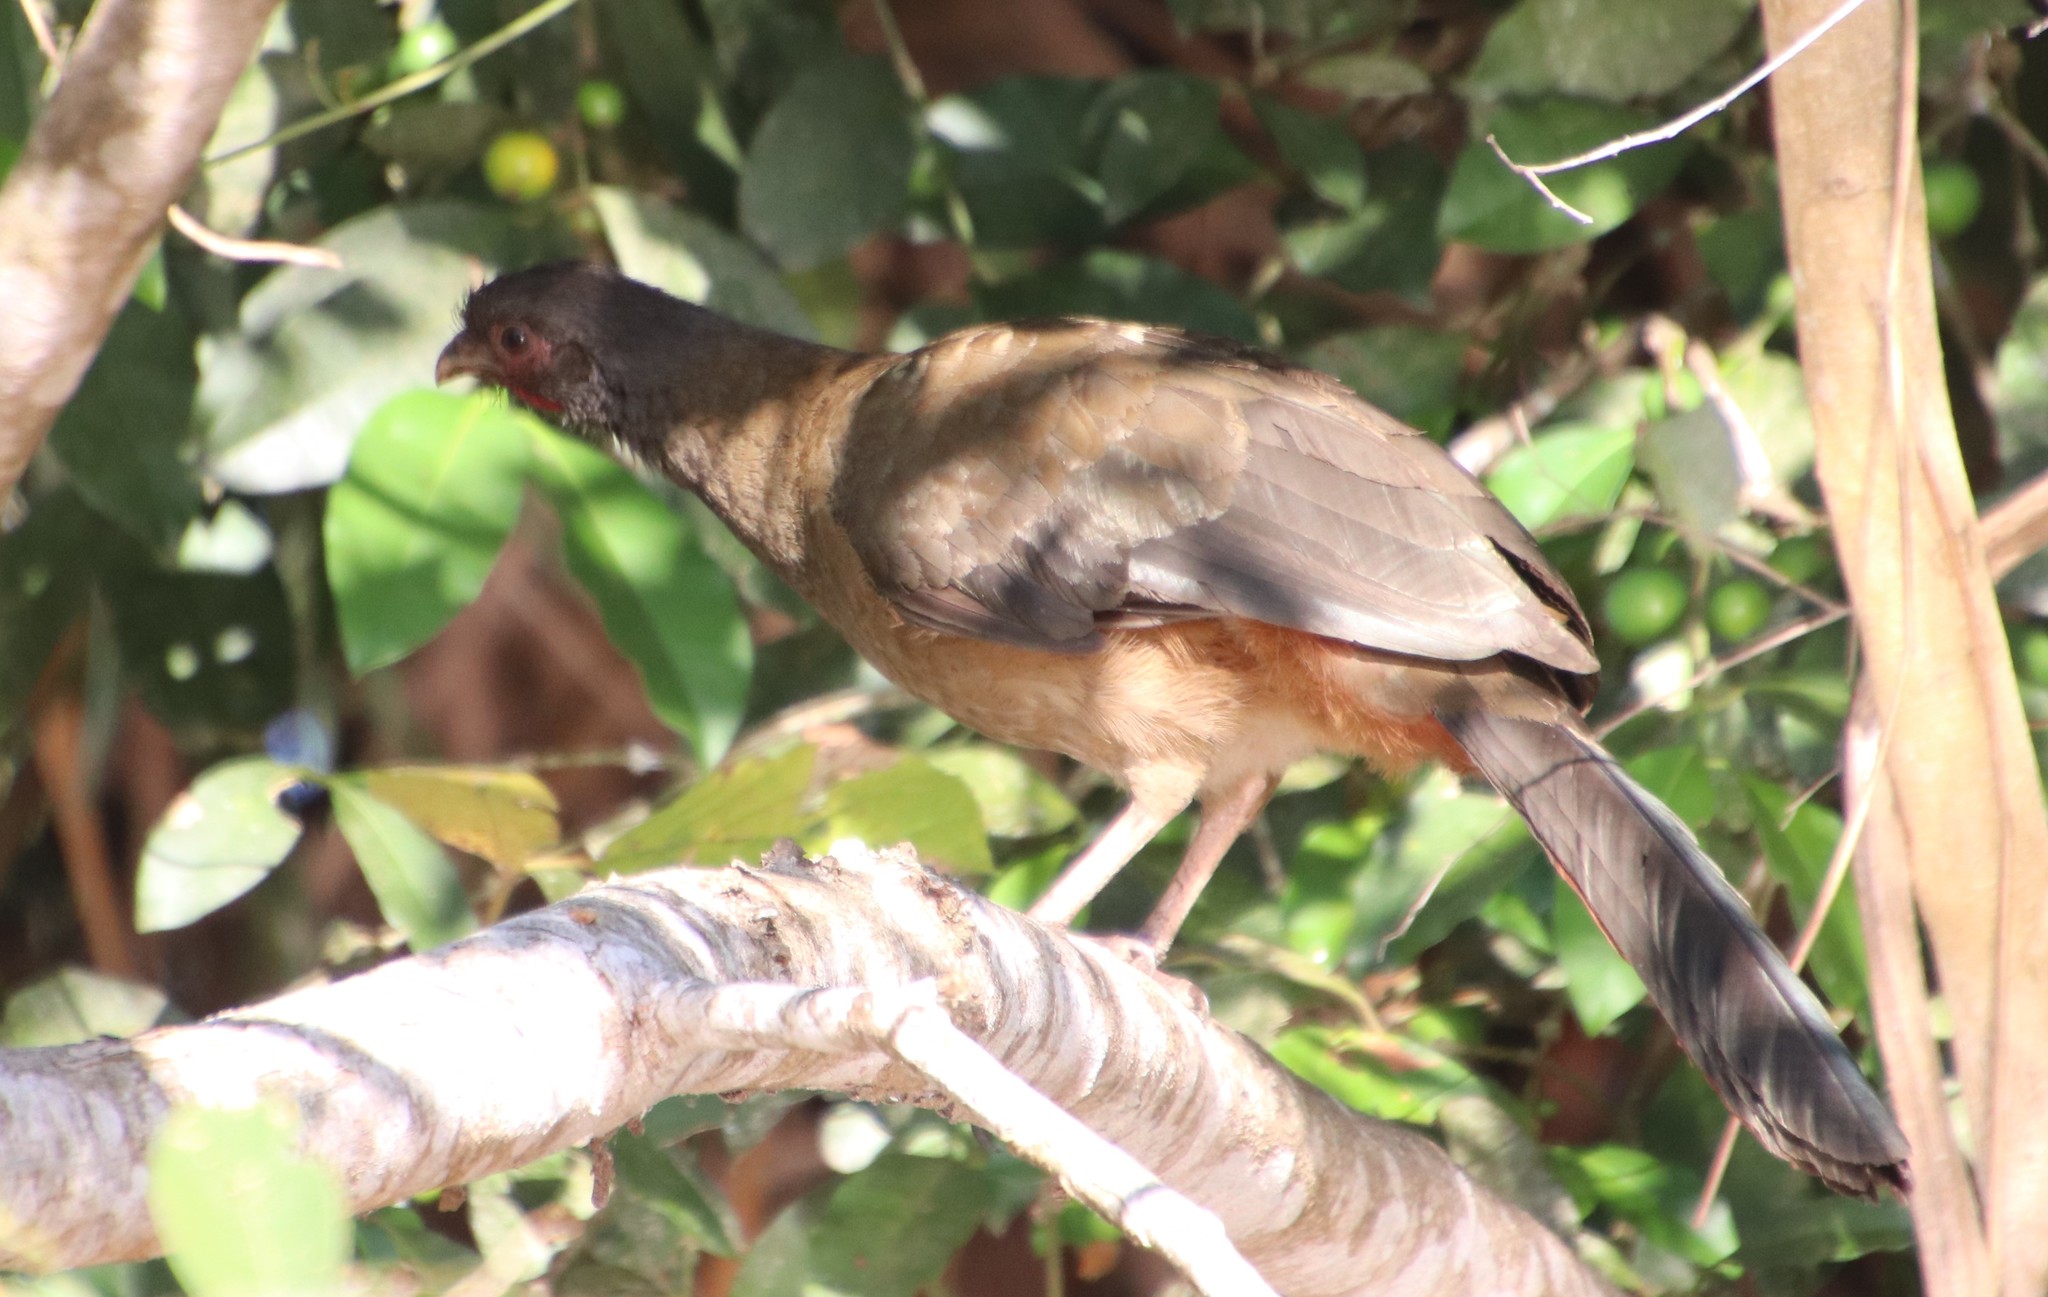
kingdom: Animalia
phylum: Chordata
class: Aves
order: Galliformes
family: Cracidae
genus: Ortalis
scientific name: Ortalis canicollis
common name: Chaco chachalaca
